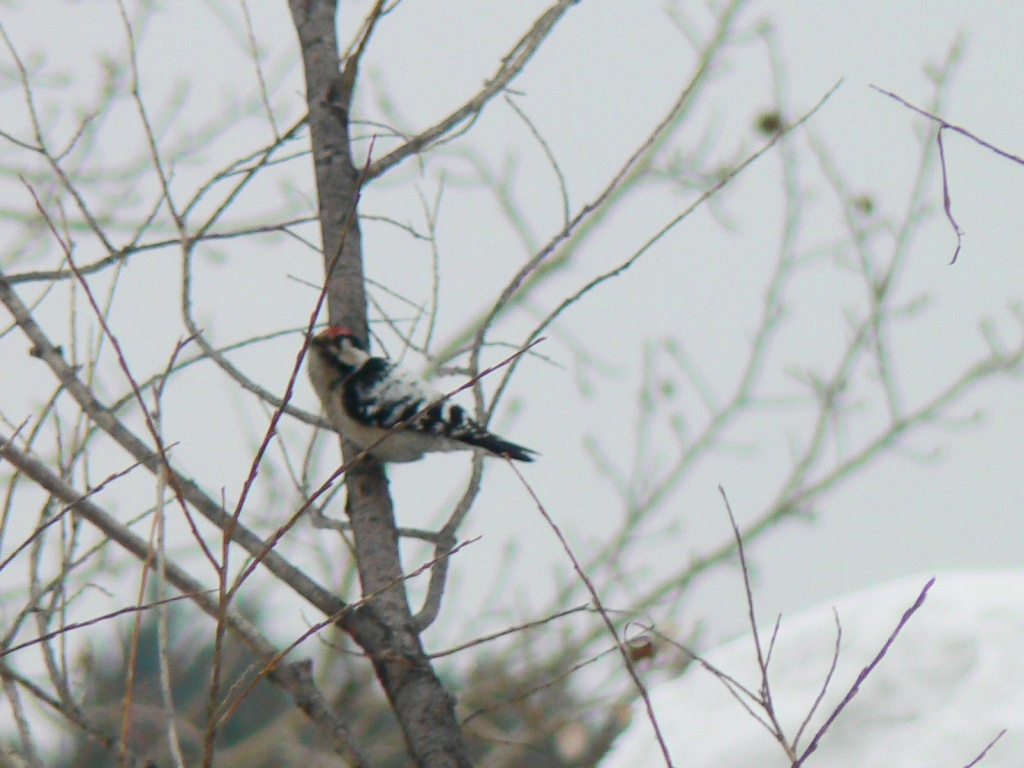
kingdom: Animalia
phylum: Chordata
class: Aves
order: Piciformes
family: Picidae
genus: Dryobates
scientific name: Dryobates minor
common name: Lesser spotted woodpecker
